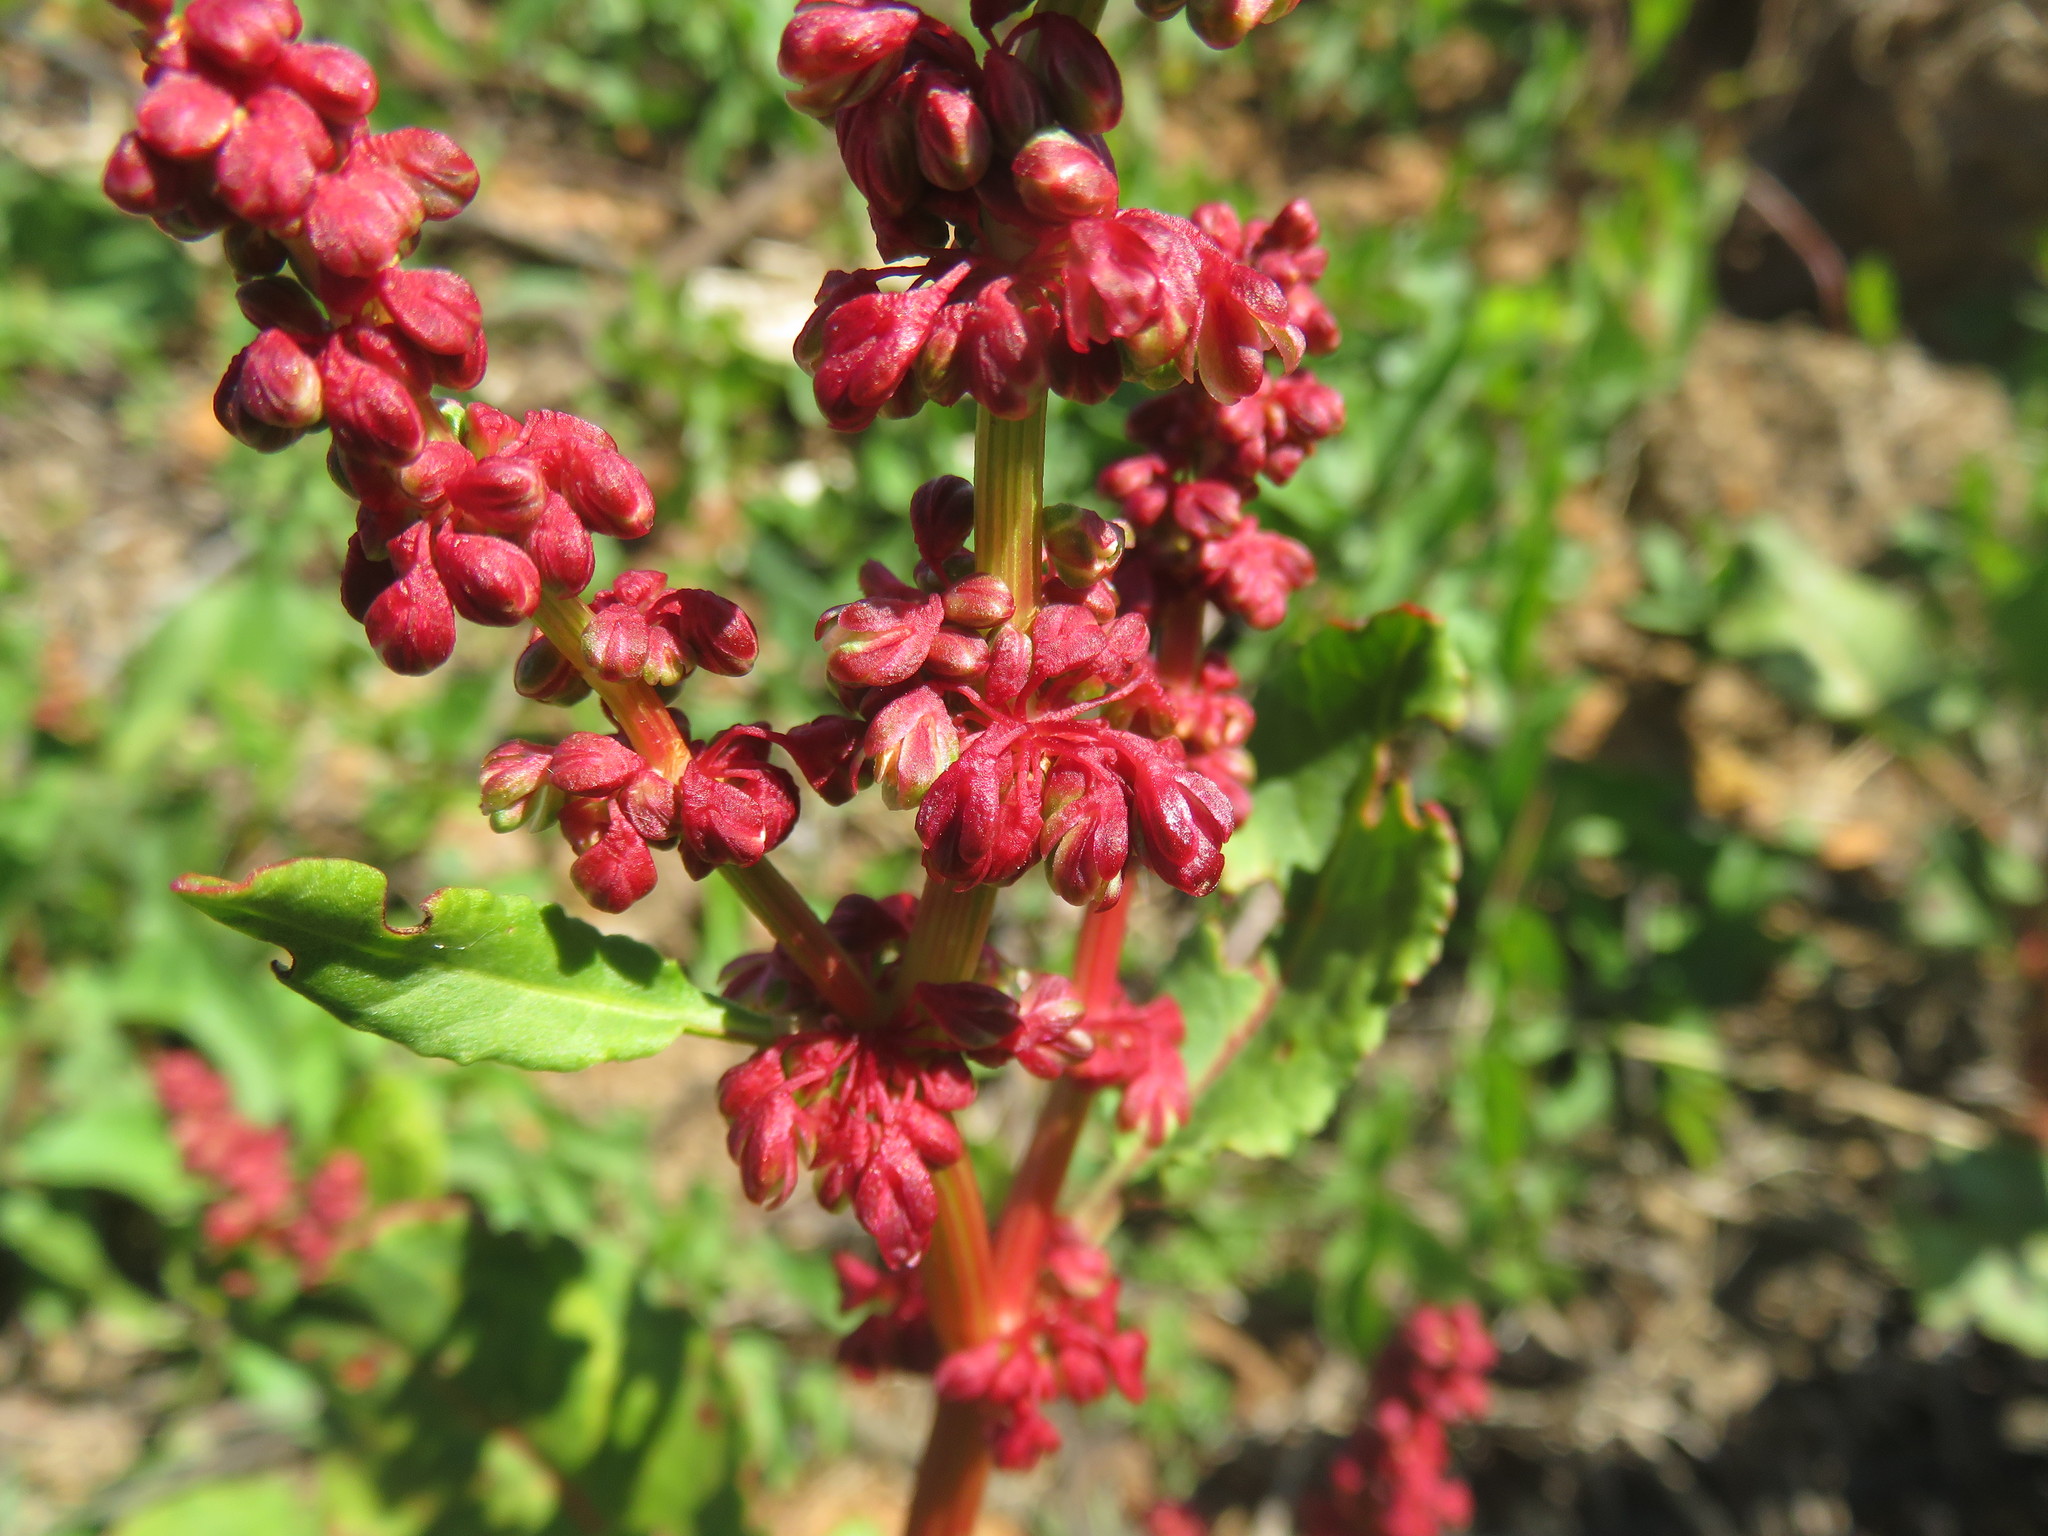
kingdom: Plantae
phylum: Tracheophyta
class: Magnoliopsida
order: Caryophyllales
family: Polygonaceae
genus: Rumex
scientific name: Rumex maricola
